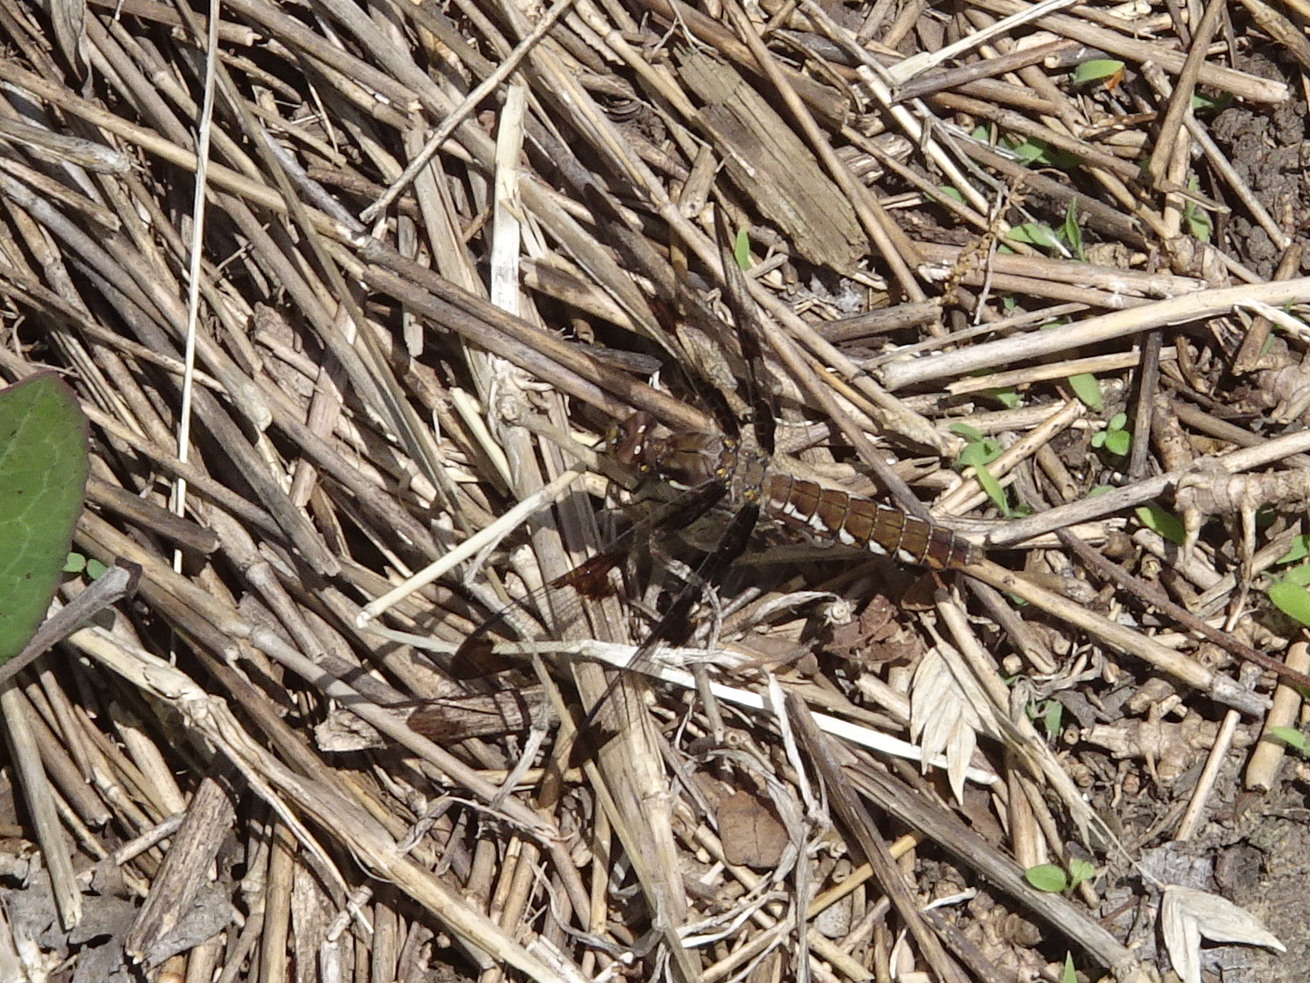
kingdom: Animalia
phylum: Arthropoda
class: Insecta
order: Odonata
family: Libellulidae
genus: Plathemis
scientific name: Plathemis lydia
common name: Common whitetail
